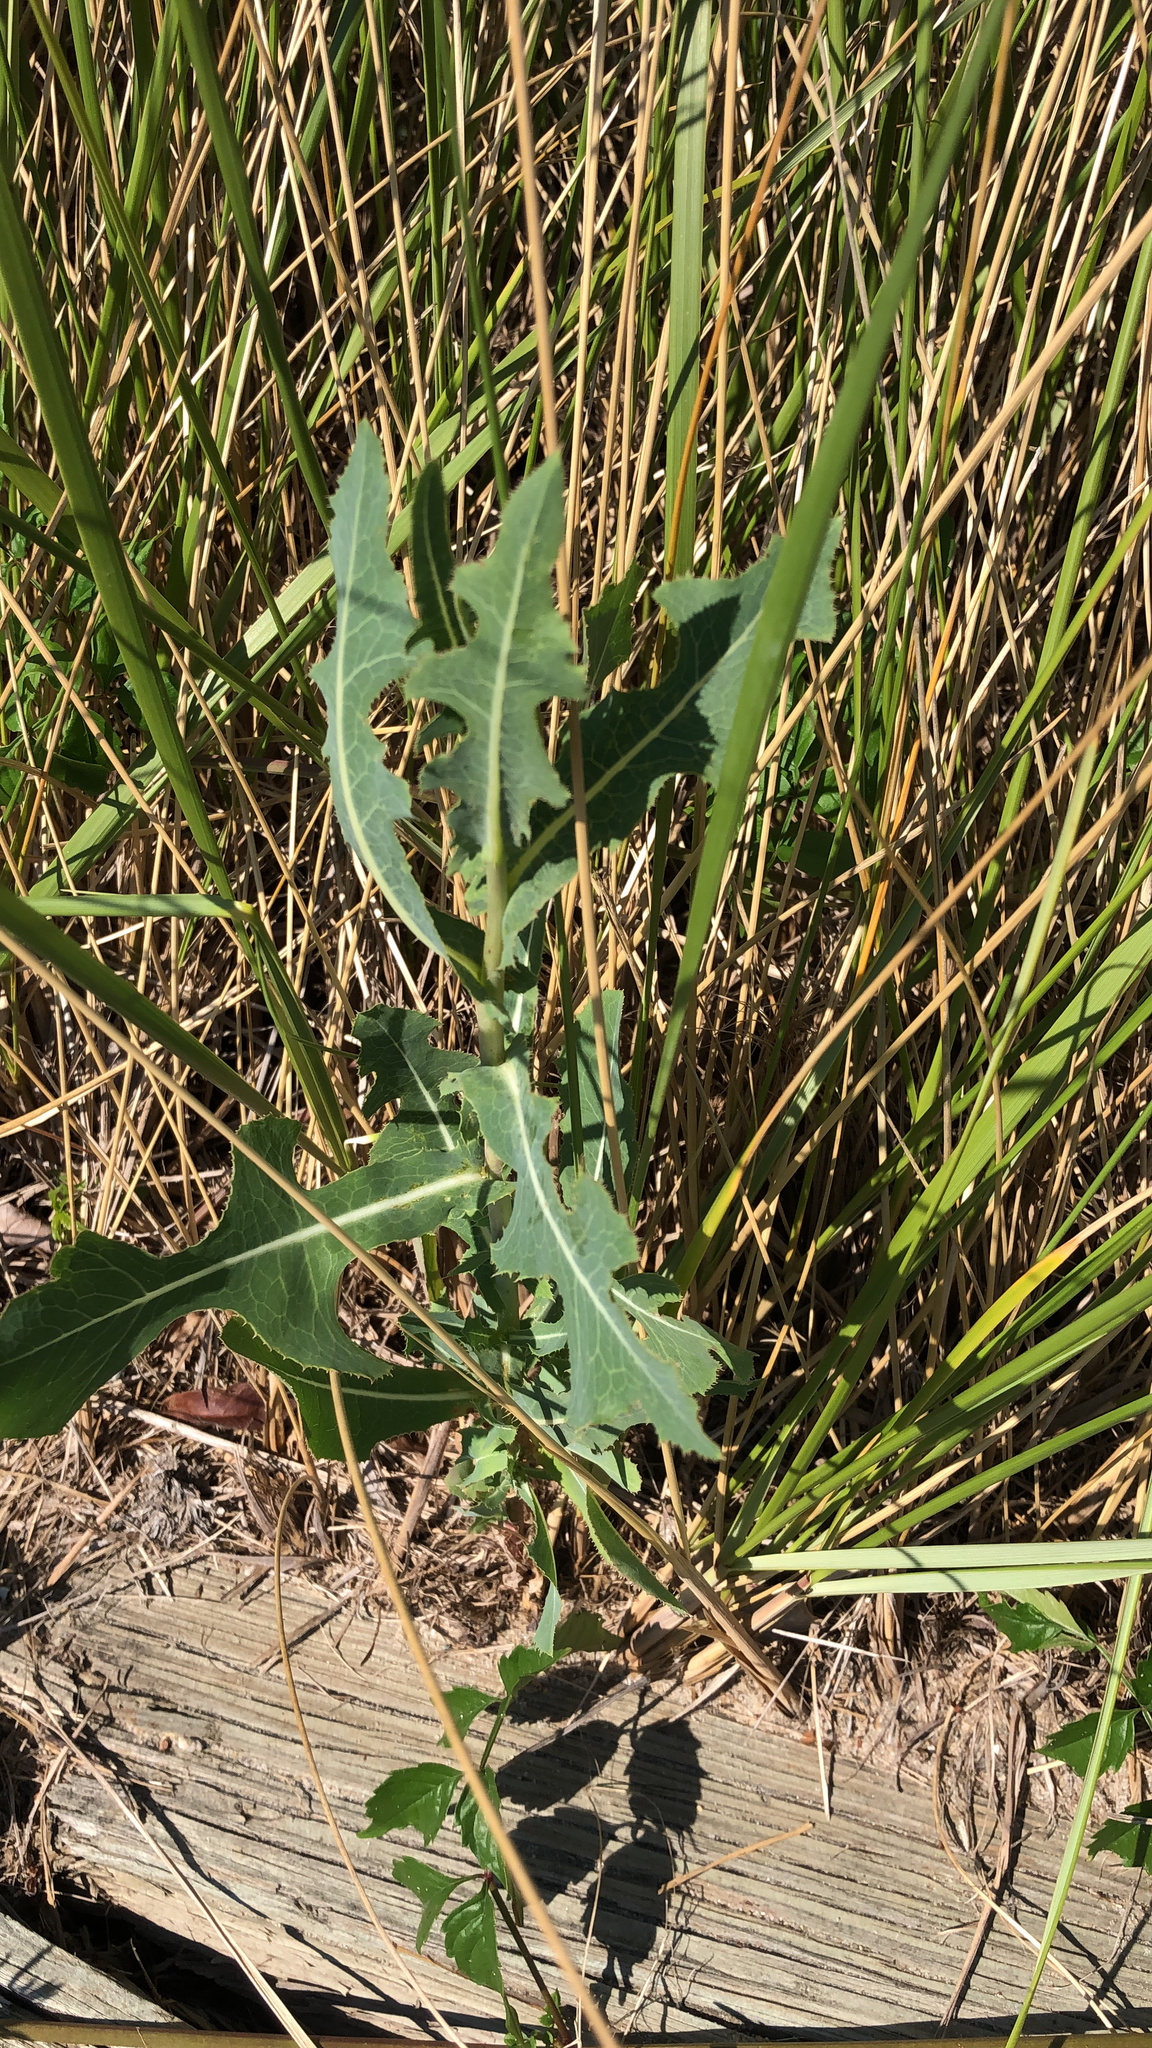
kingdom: Plantae
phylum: Tracheophyta
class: Magnoliopsida
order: Asterales
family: Asteraceae
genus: Lactuca
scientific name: Lactuca serriola
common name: Prickly lettuce
